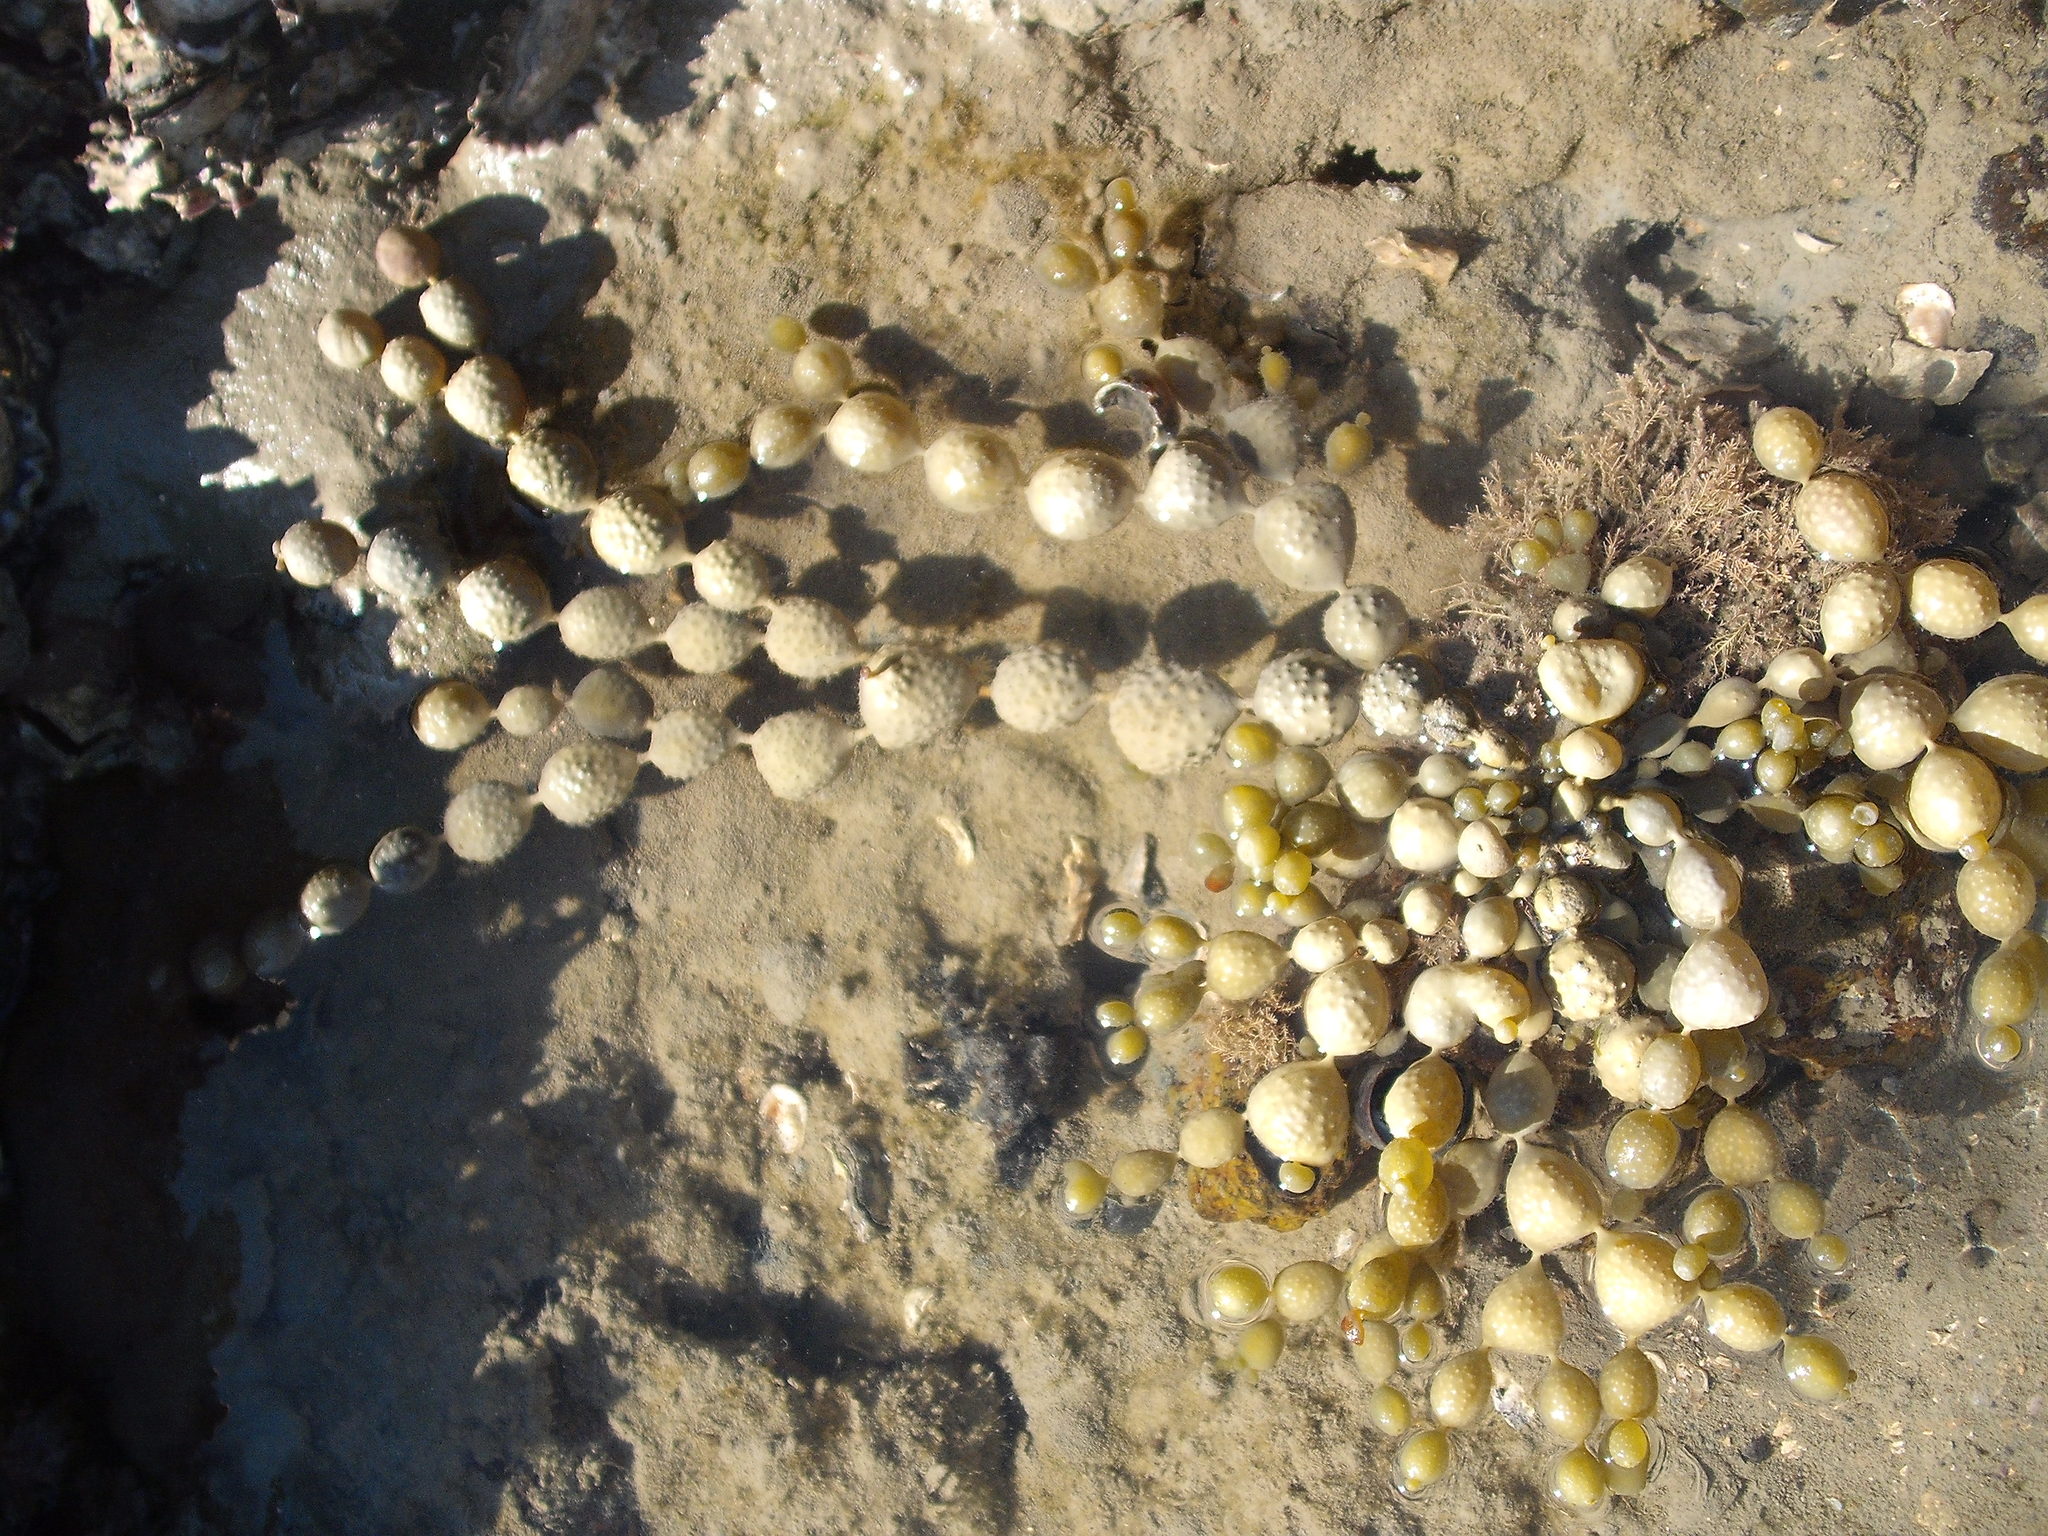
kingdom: Chromista
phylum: Ochrophyta
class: Phaeophyceae
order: Fucales
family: Hormosiraceae
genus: Hormosira
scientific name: Hormosira banksii
